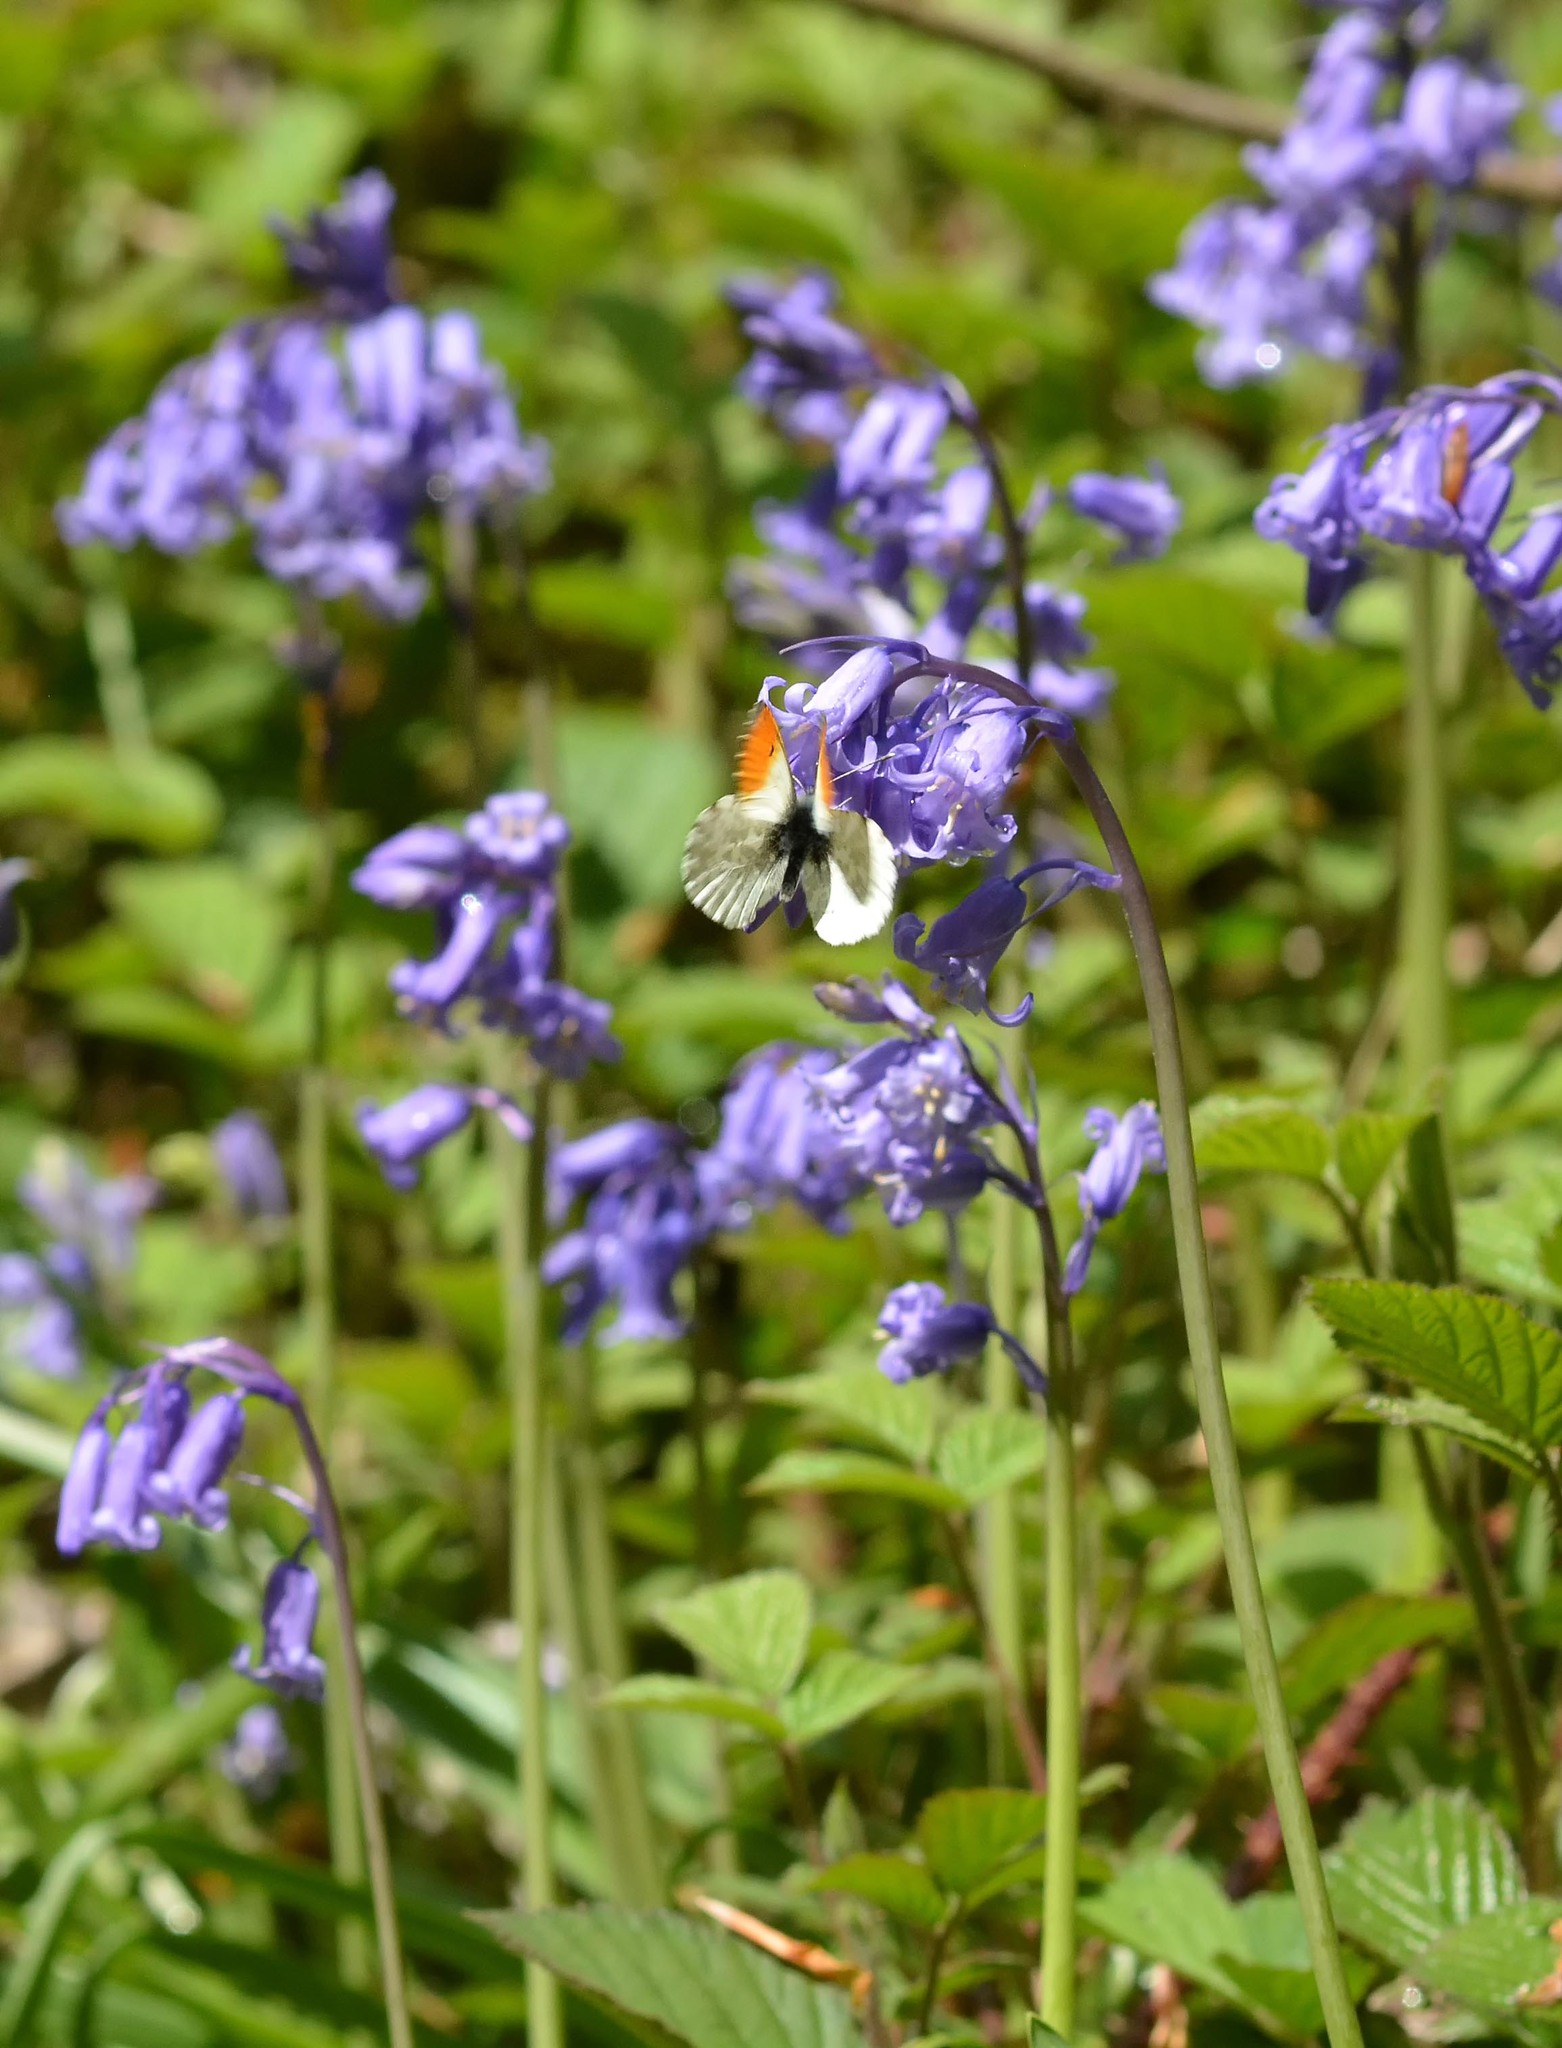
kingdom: Animalia
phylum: Arthropoda
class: Insecta
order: Lepidoptera
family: Pieridae
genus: Anthocharis
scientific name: Anthocharis cardamines
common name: Orange-tip
